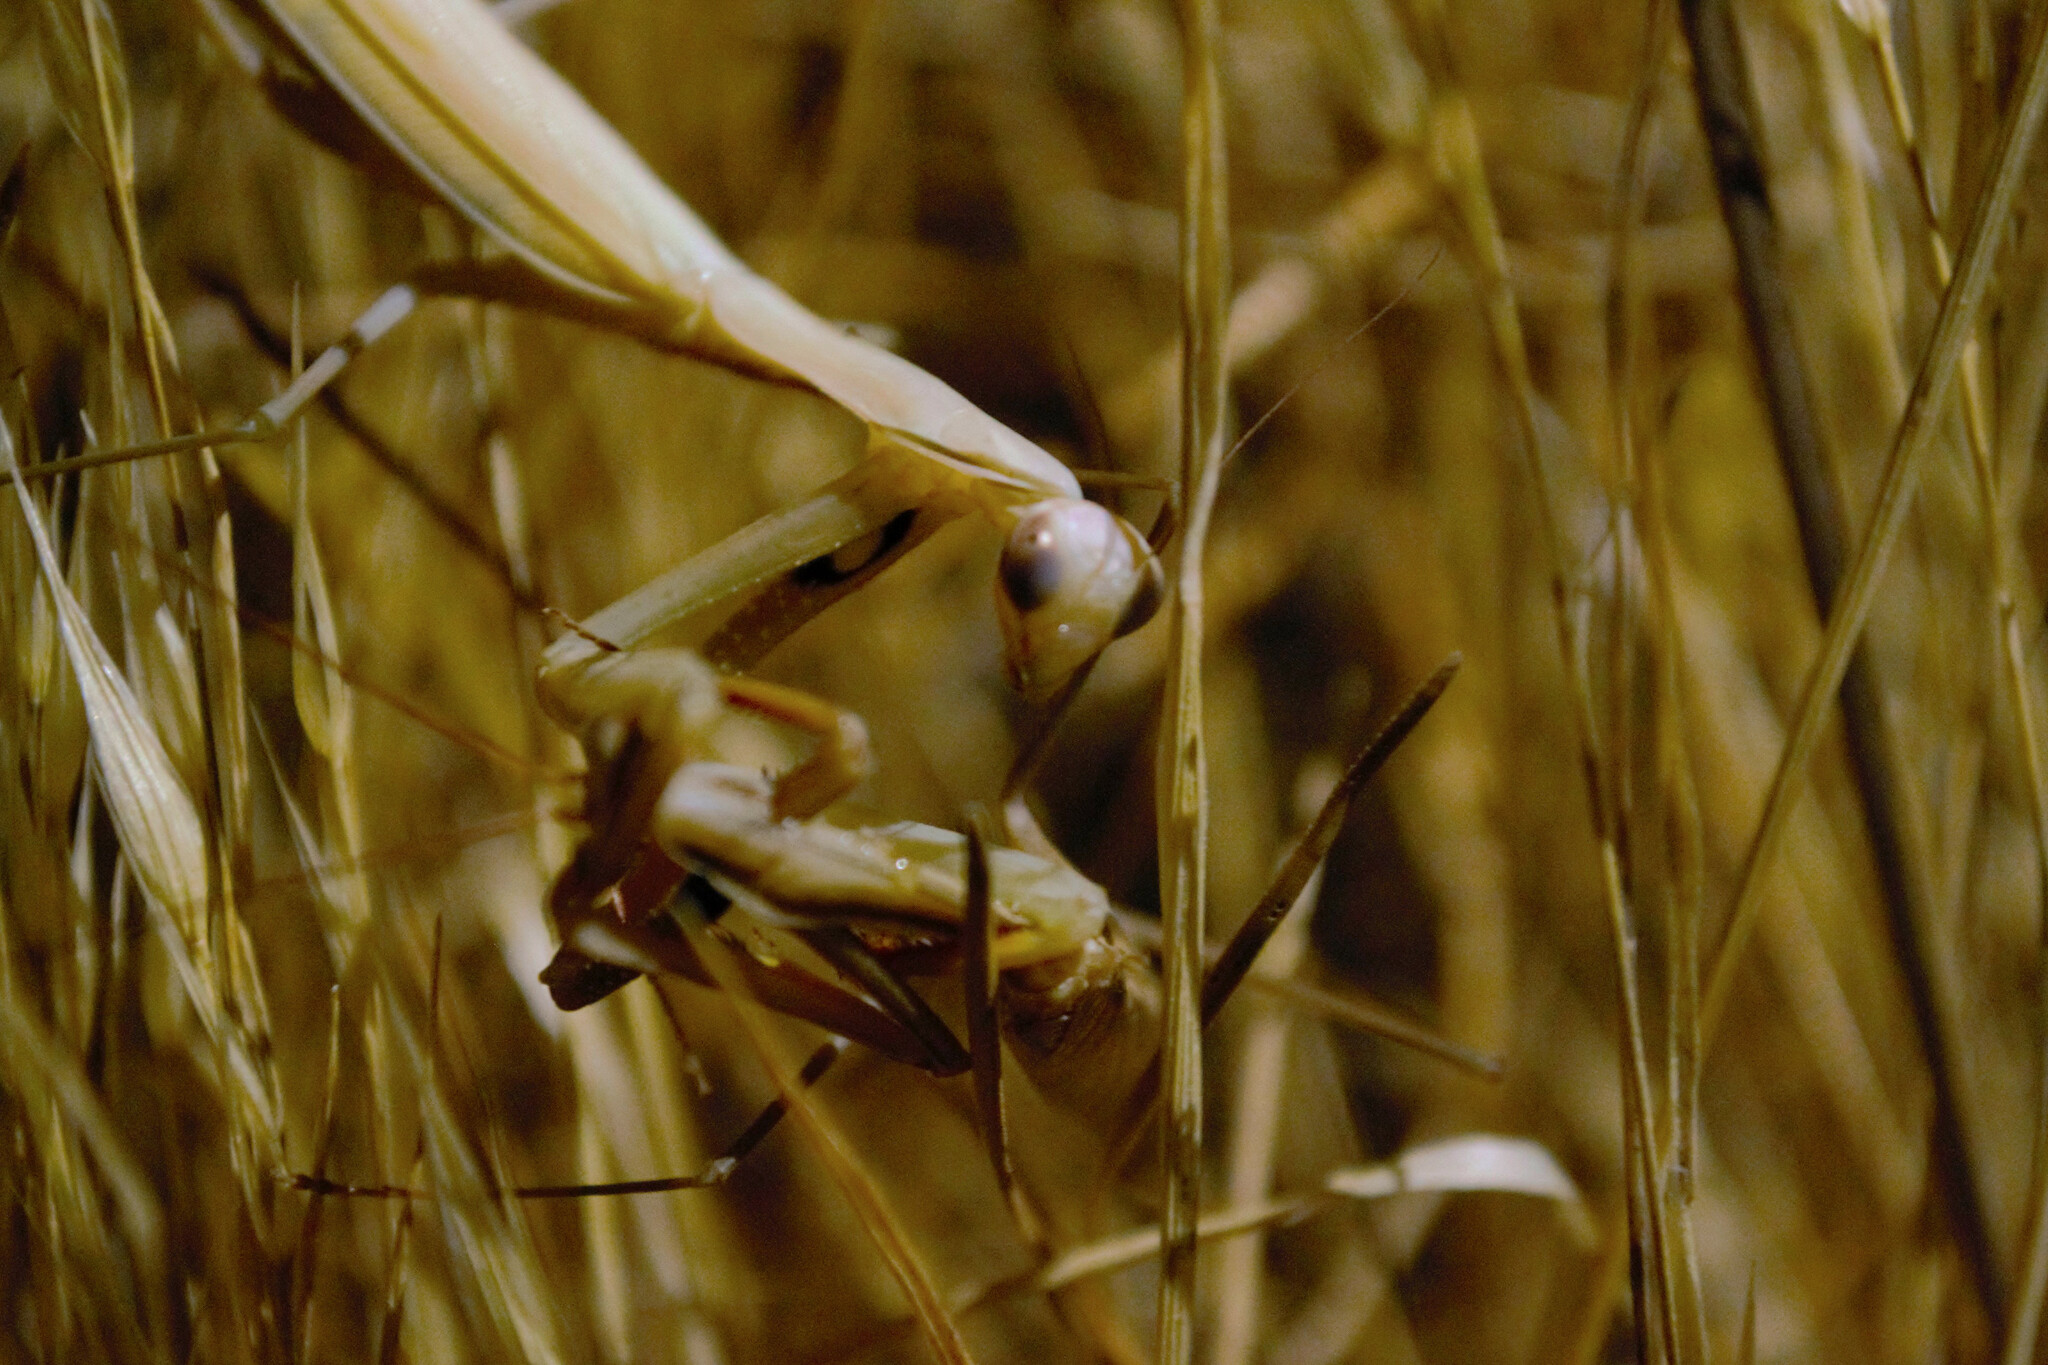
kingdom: Animalia
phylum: Arthropoda
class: Insecta
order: Mantodea
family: Mantidae
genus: Mantis
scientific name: Mantis religiosa
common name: Praying mantis
